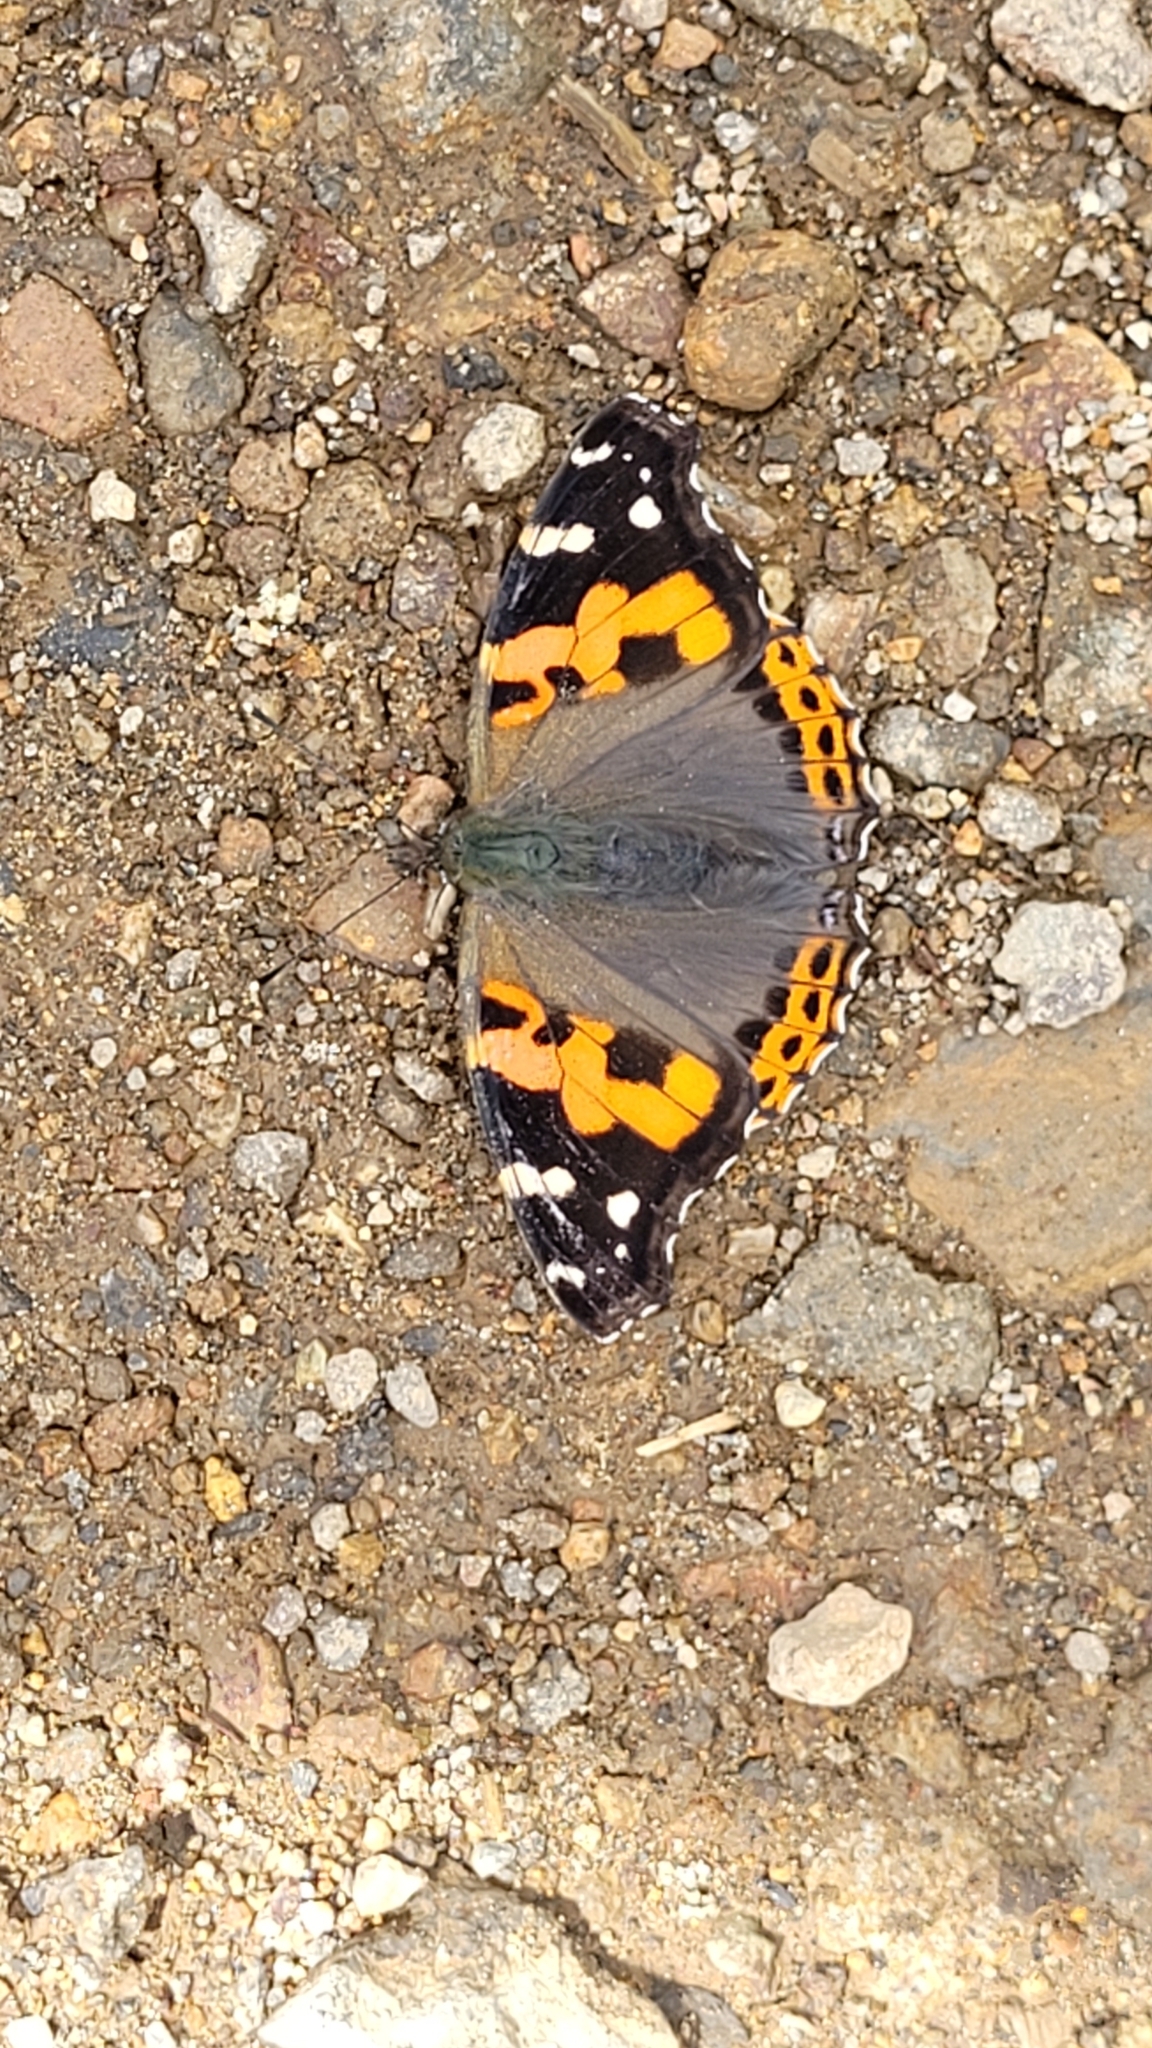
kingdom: Animalia
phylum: Arthropoda
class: Insecta
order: Lepidoptera
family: Nymphalidae
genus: Vanessa
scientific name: Vanessa indica
